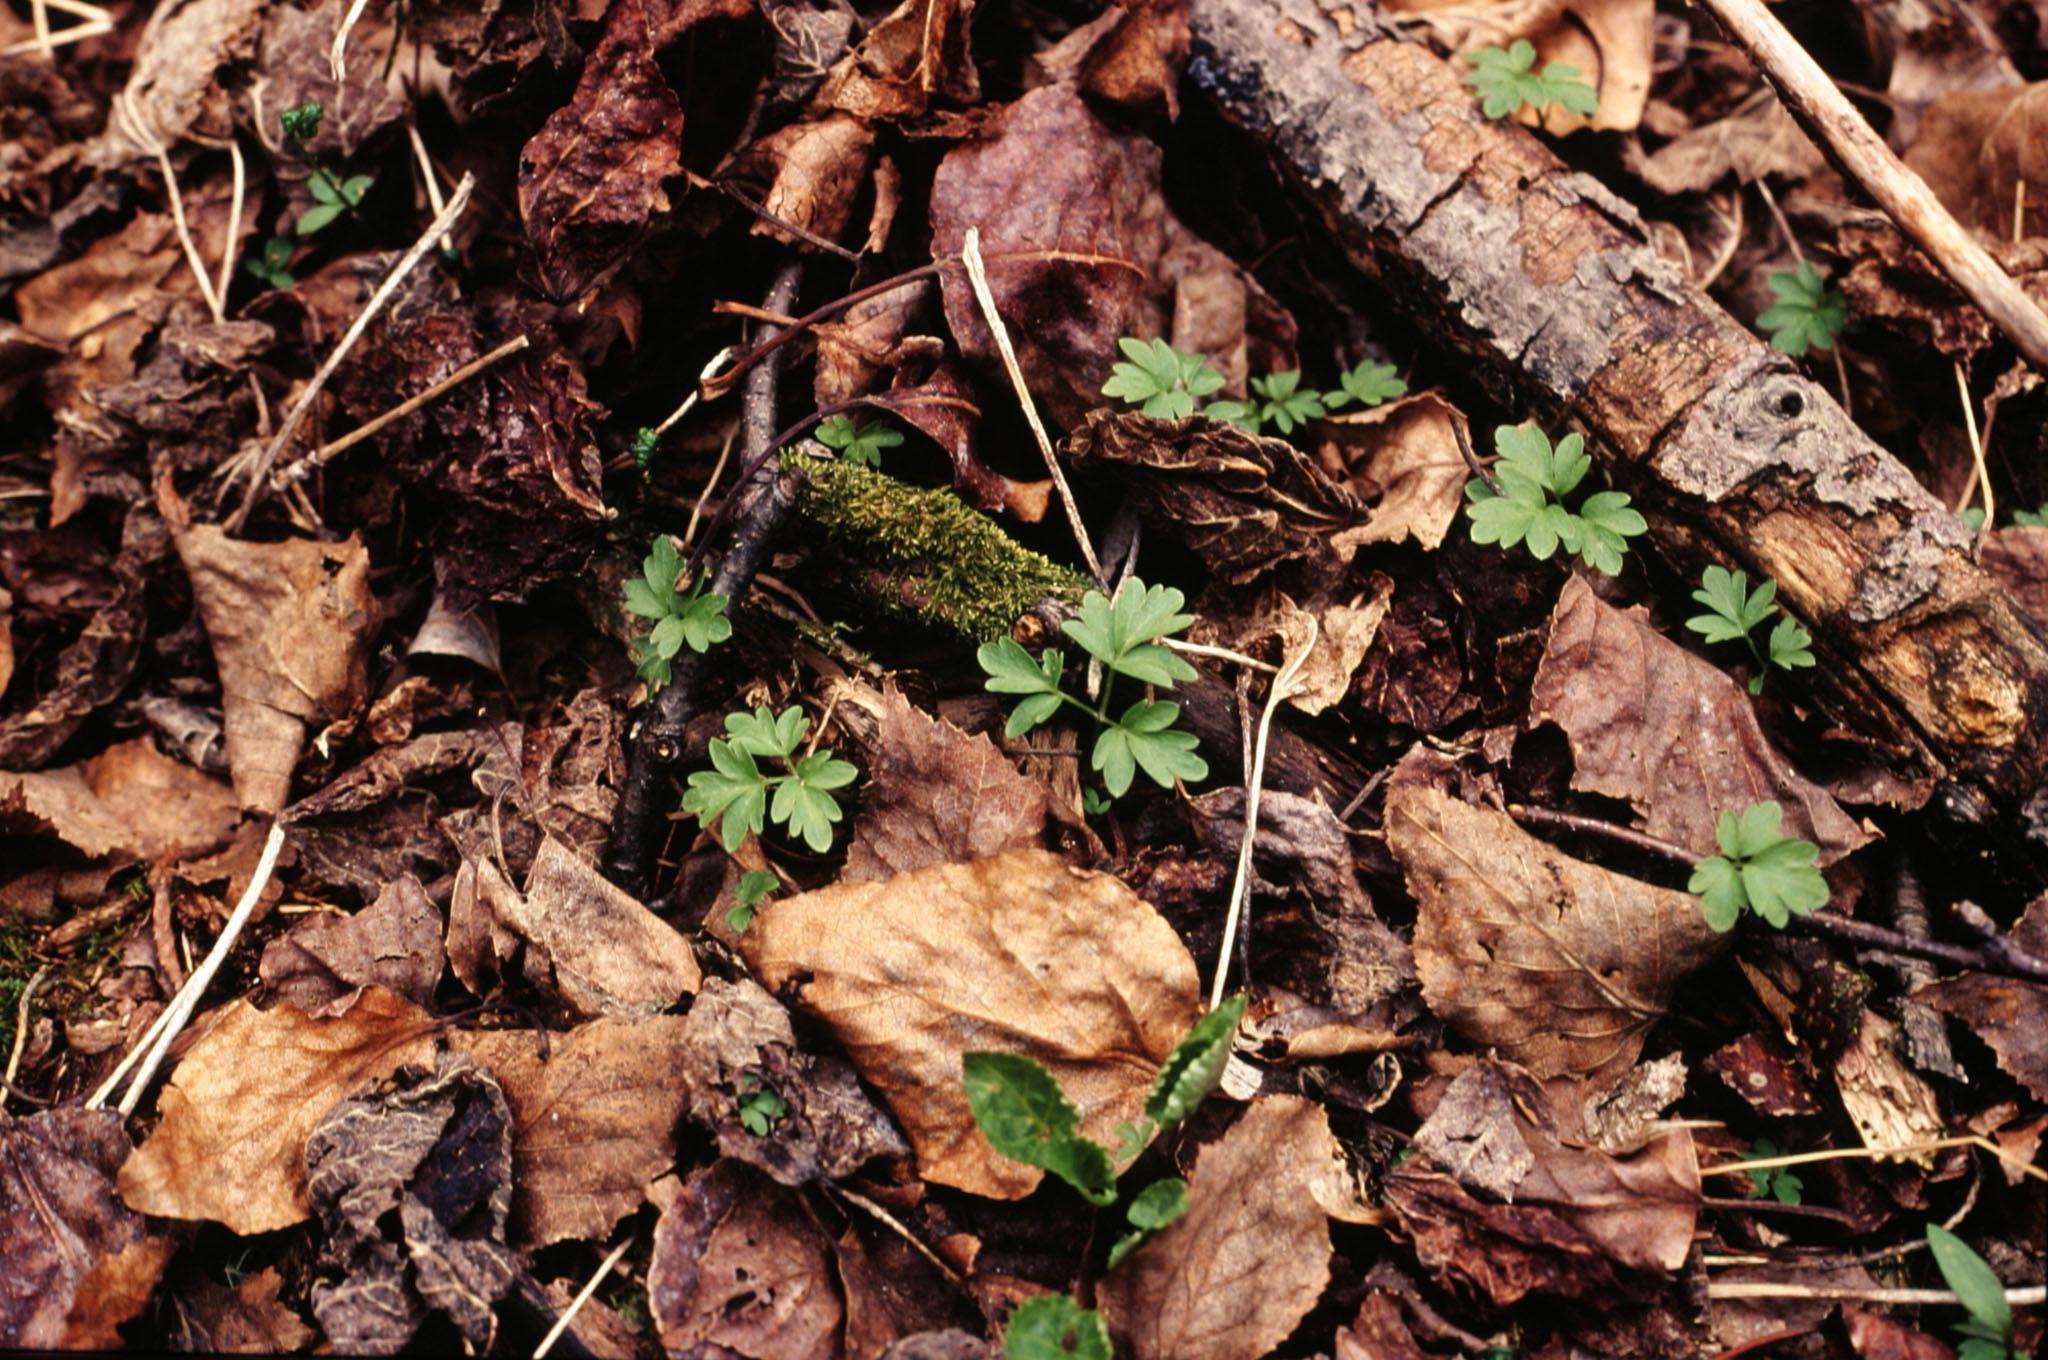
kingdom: Plantae
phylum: Tracheophyta
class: Magnoliopsida
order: Dipsacales
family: Viburnaceae
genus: Adoxa
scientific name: Adoxa moschatellina
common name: Moschatel
